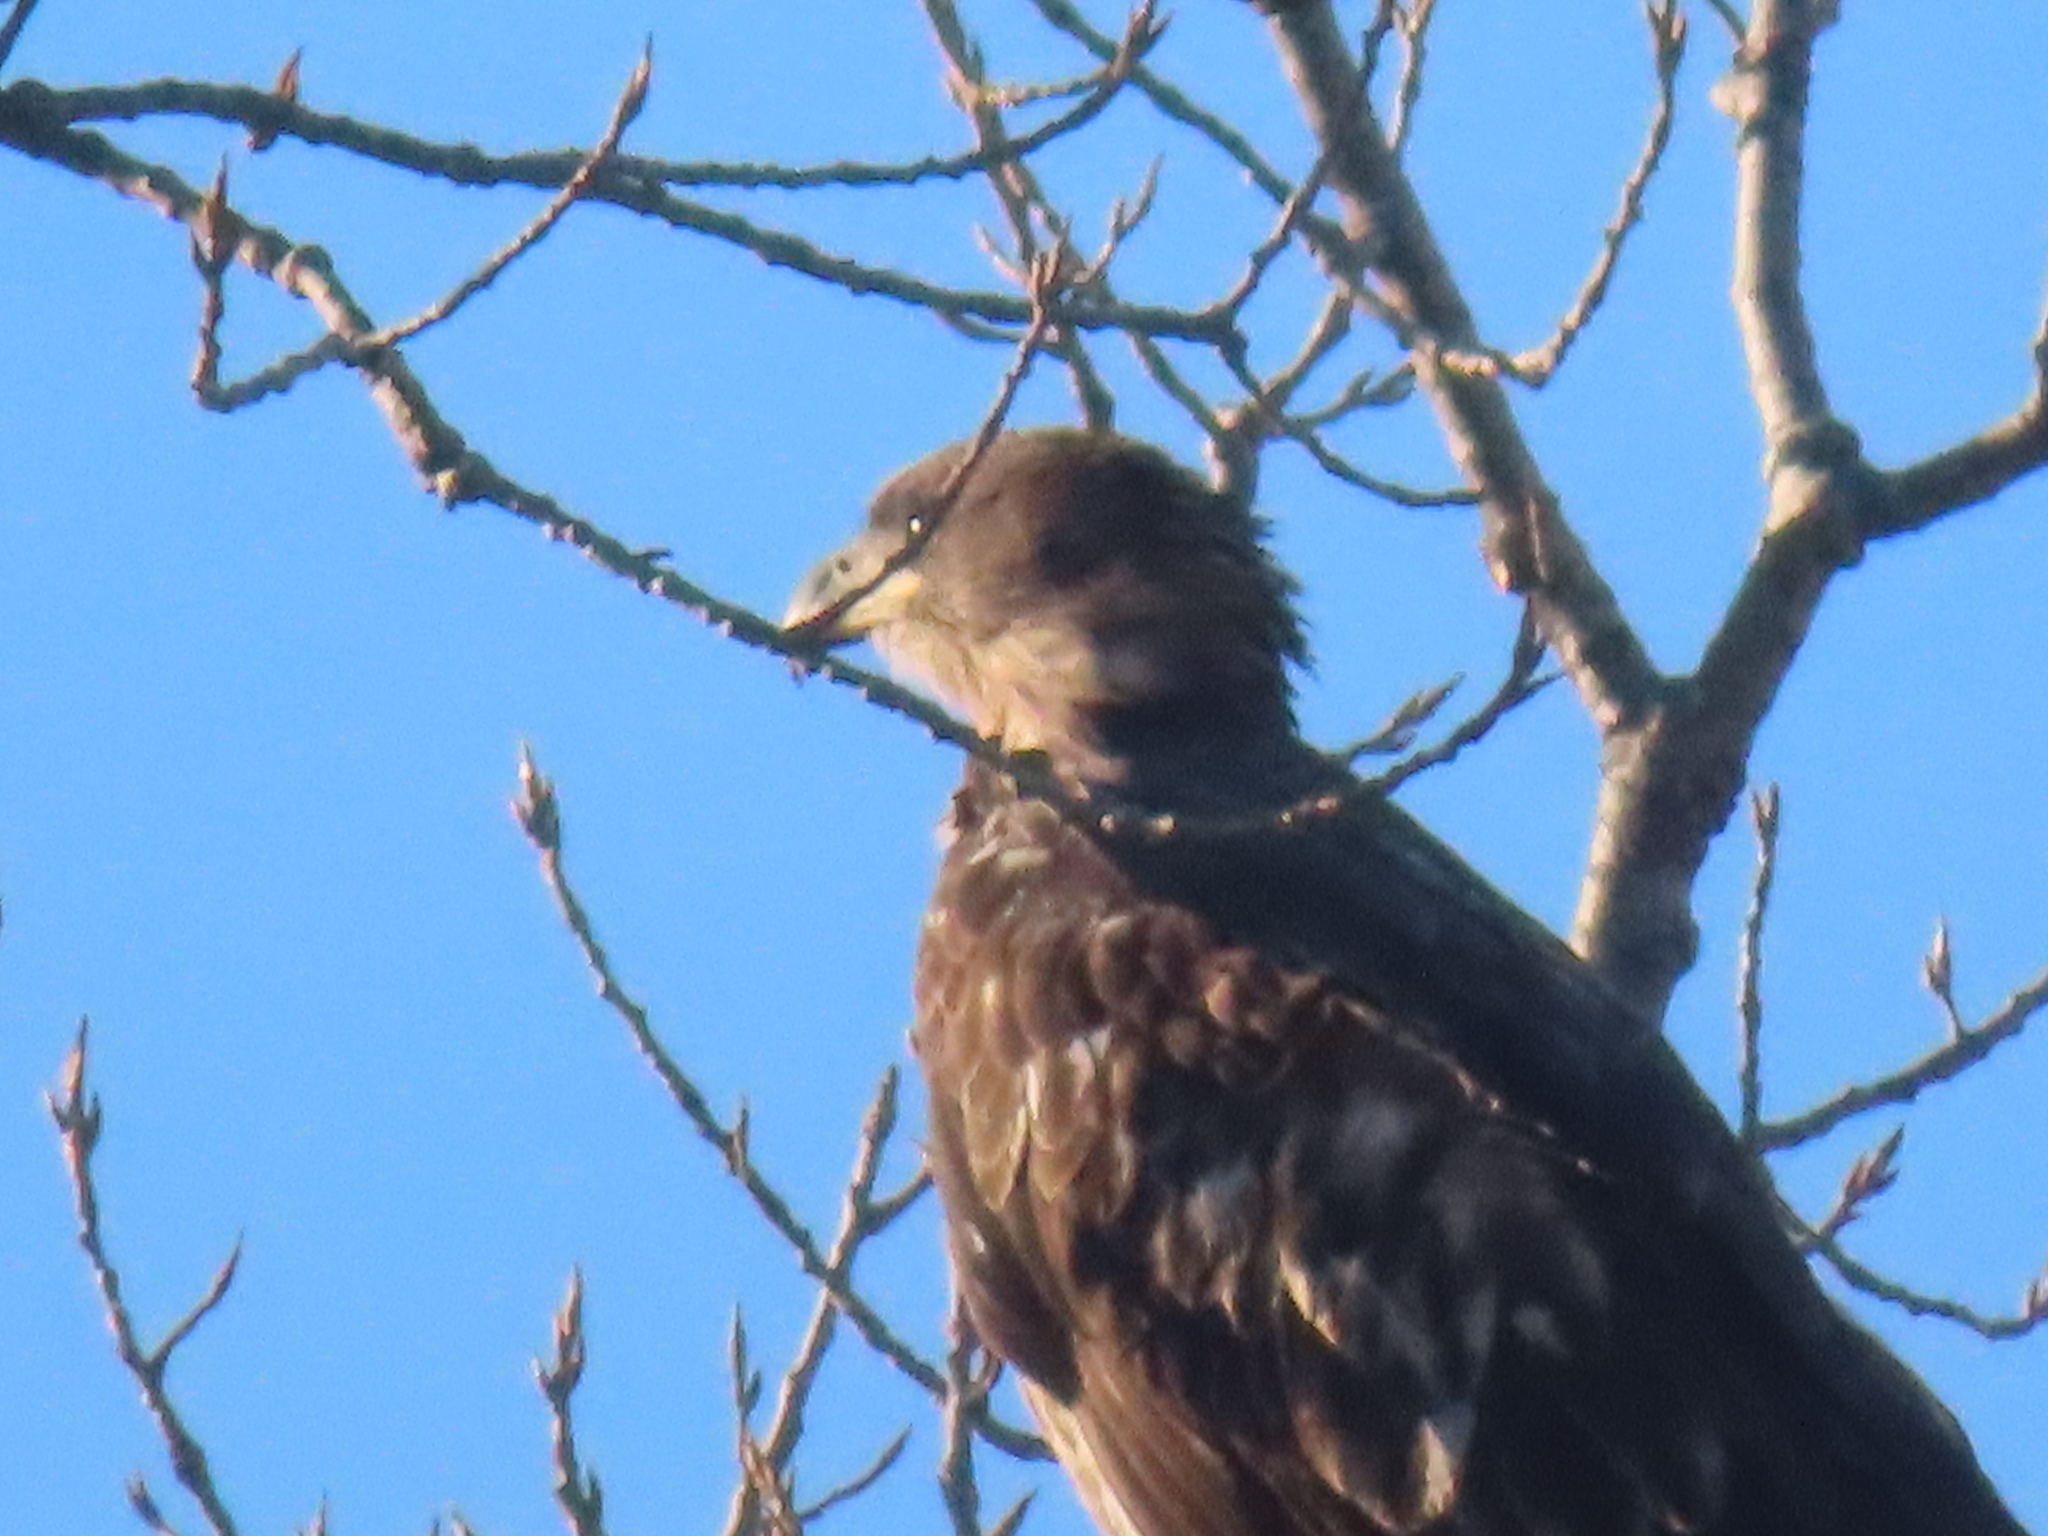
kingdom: Animalia
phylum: Chordata
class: Aves
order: Accipitriformes
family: Accipitridae
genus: Haliaeetus
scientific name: Haliaeetus leucocephalus
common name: Bald eagle
